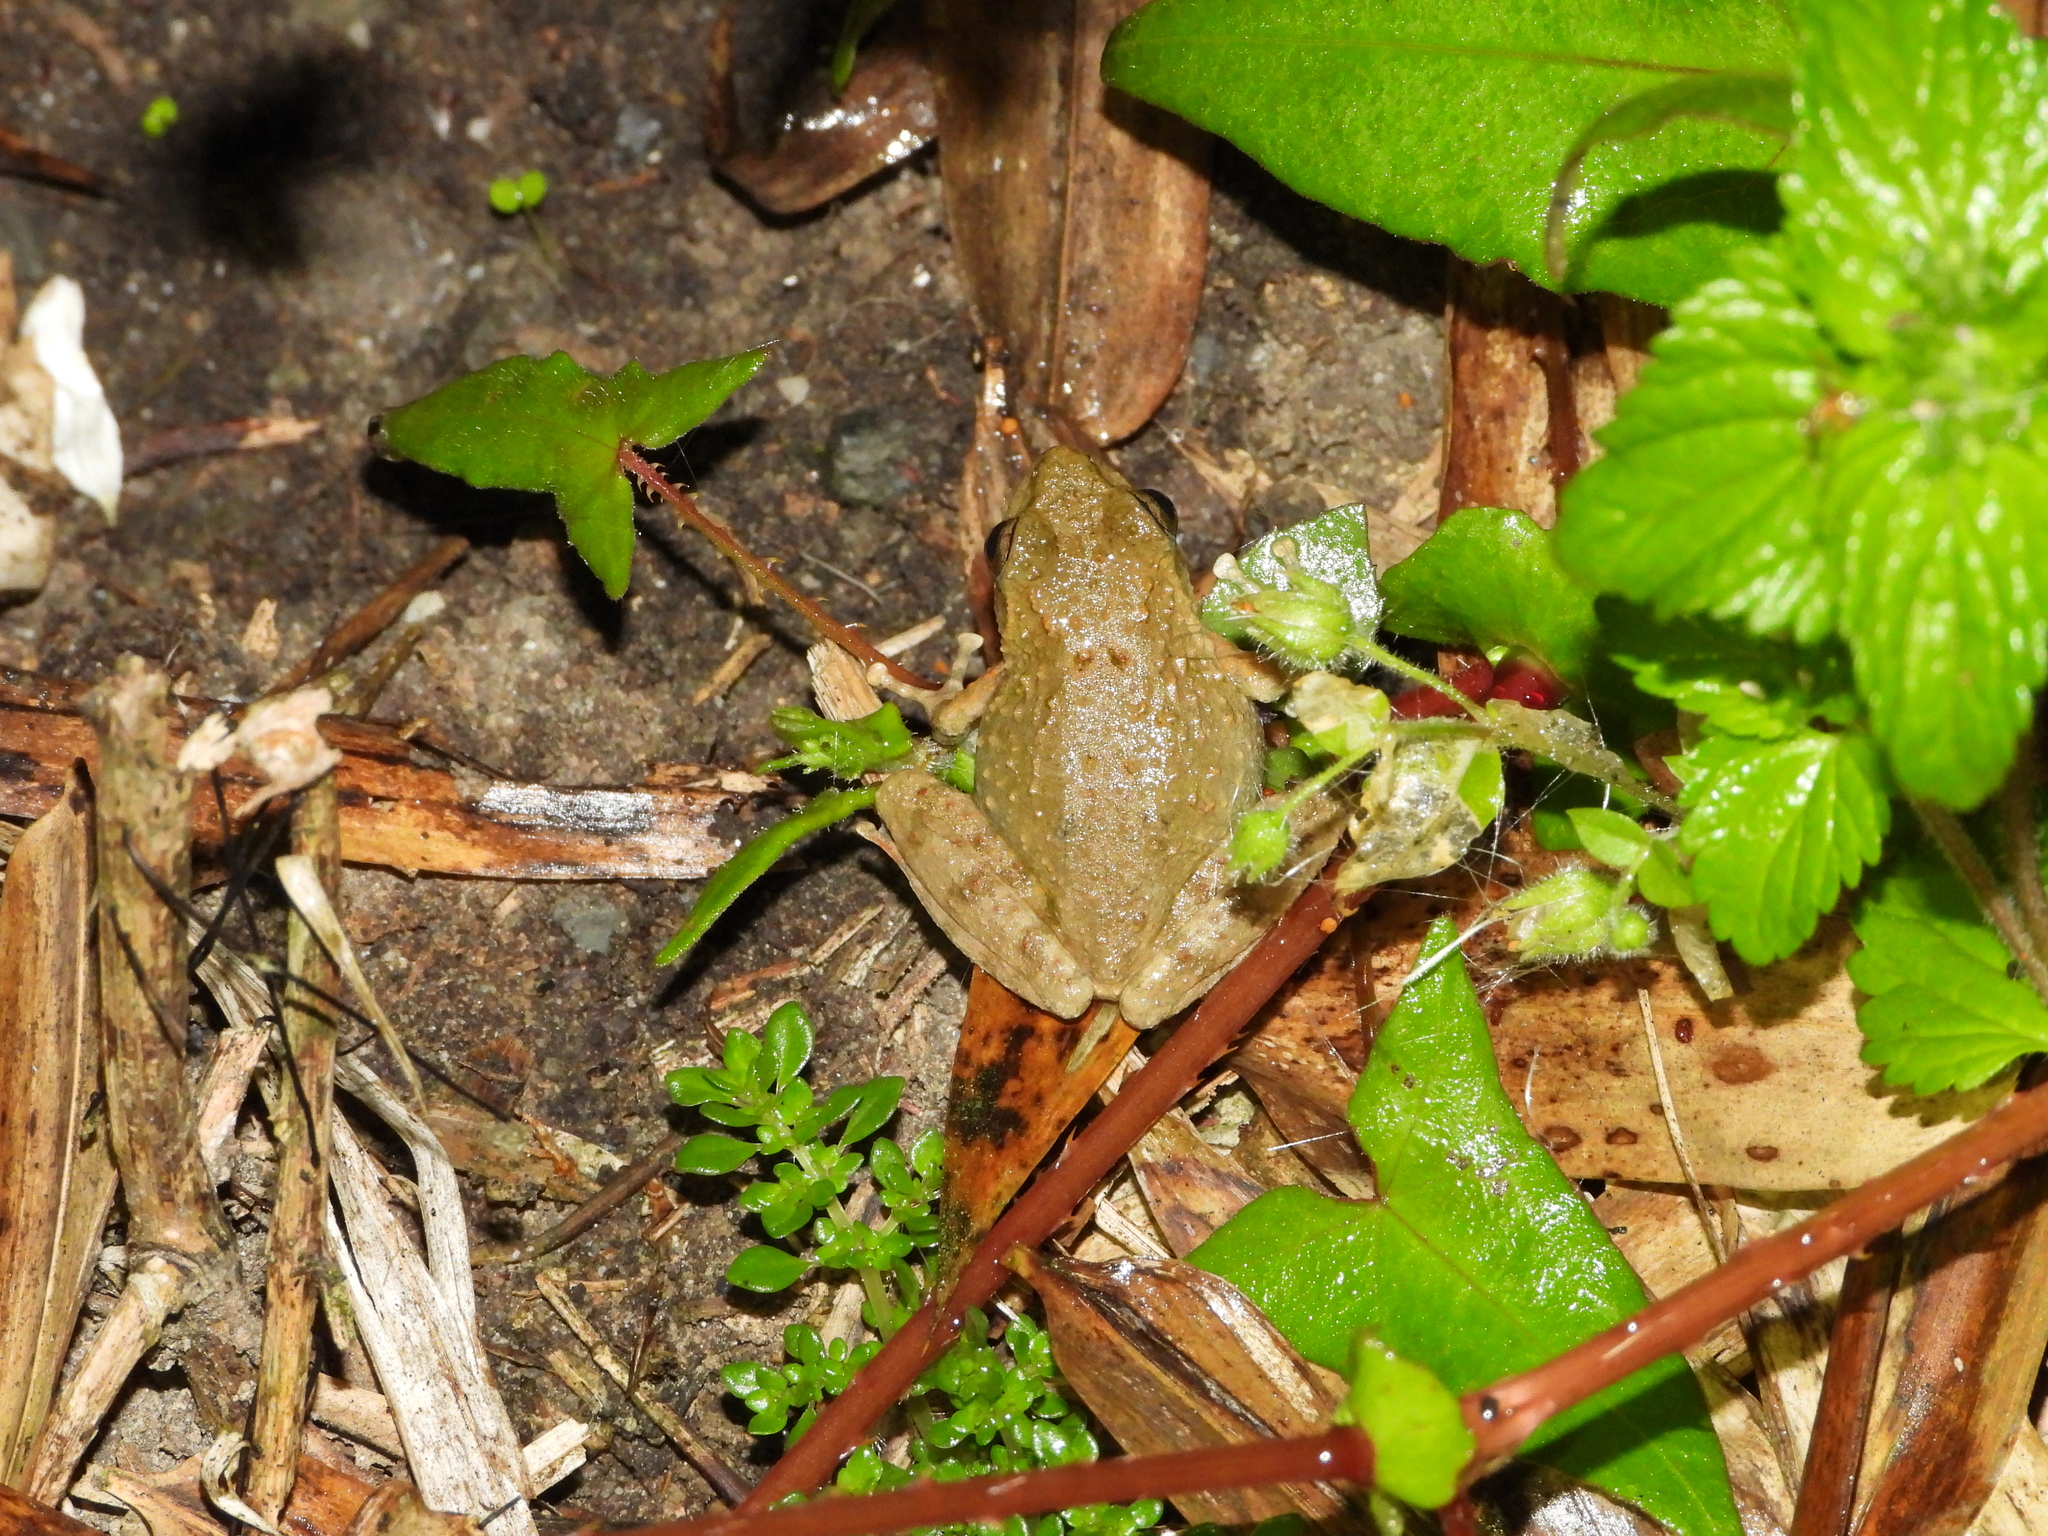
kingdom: Animalia
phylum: Chordata
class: Amphibia
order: Anura
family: Rhacophoridae
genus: Buergeria
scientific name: Buergeria otai
